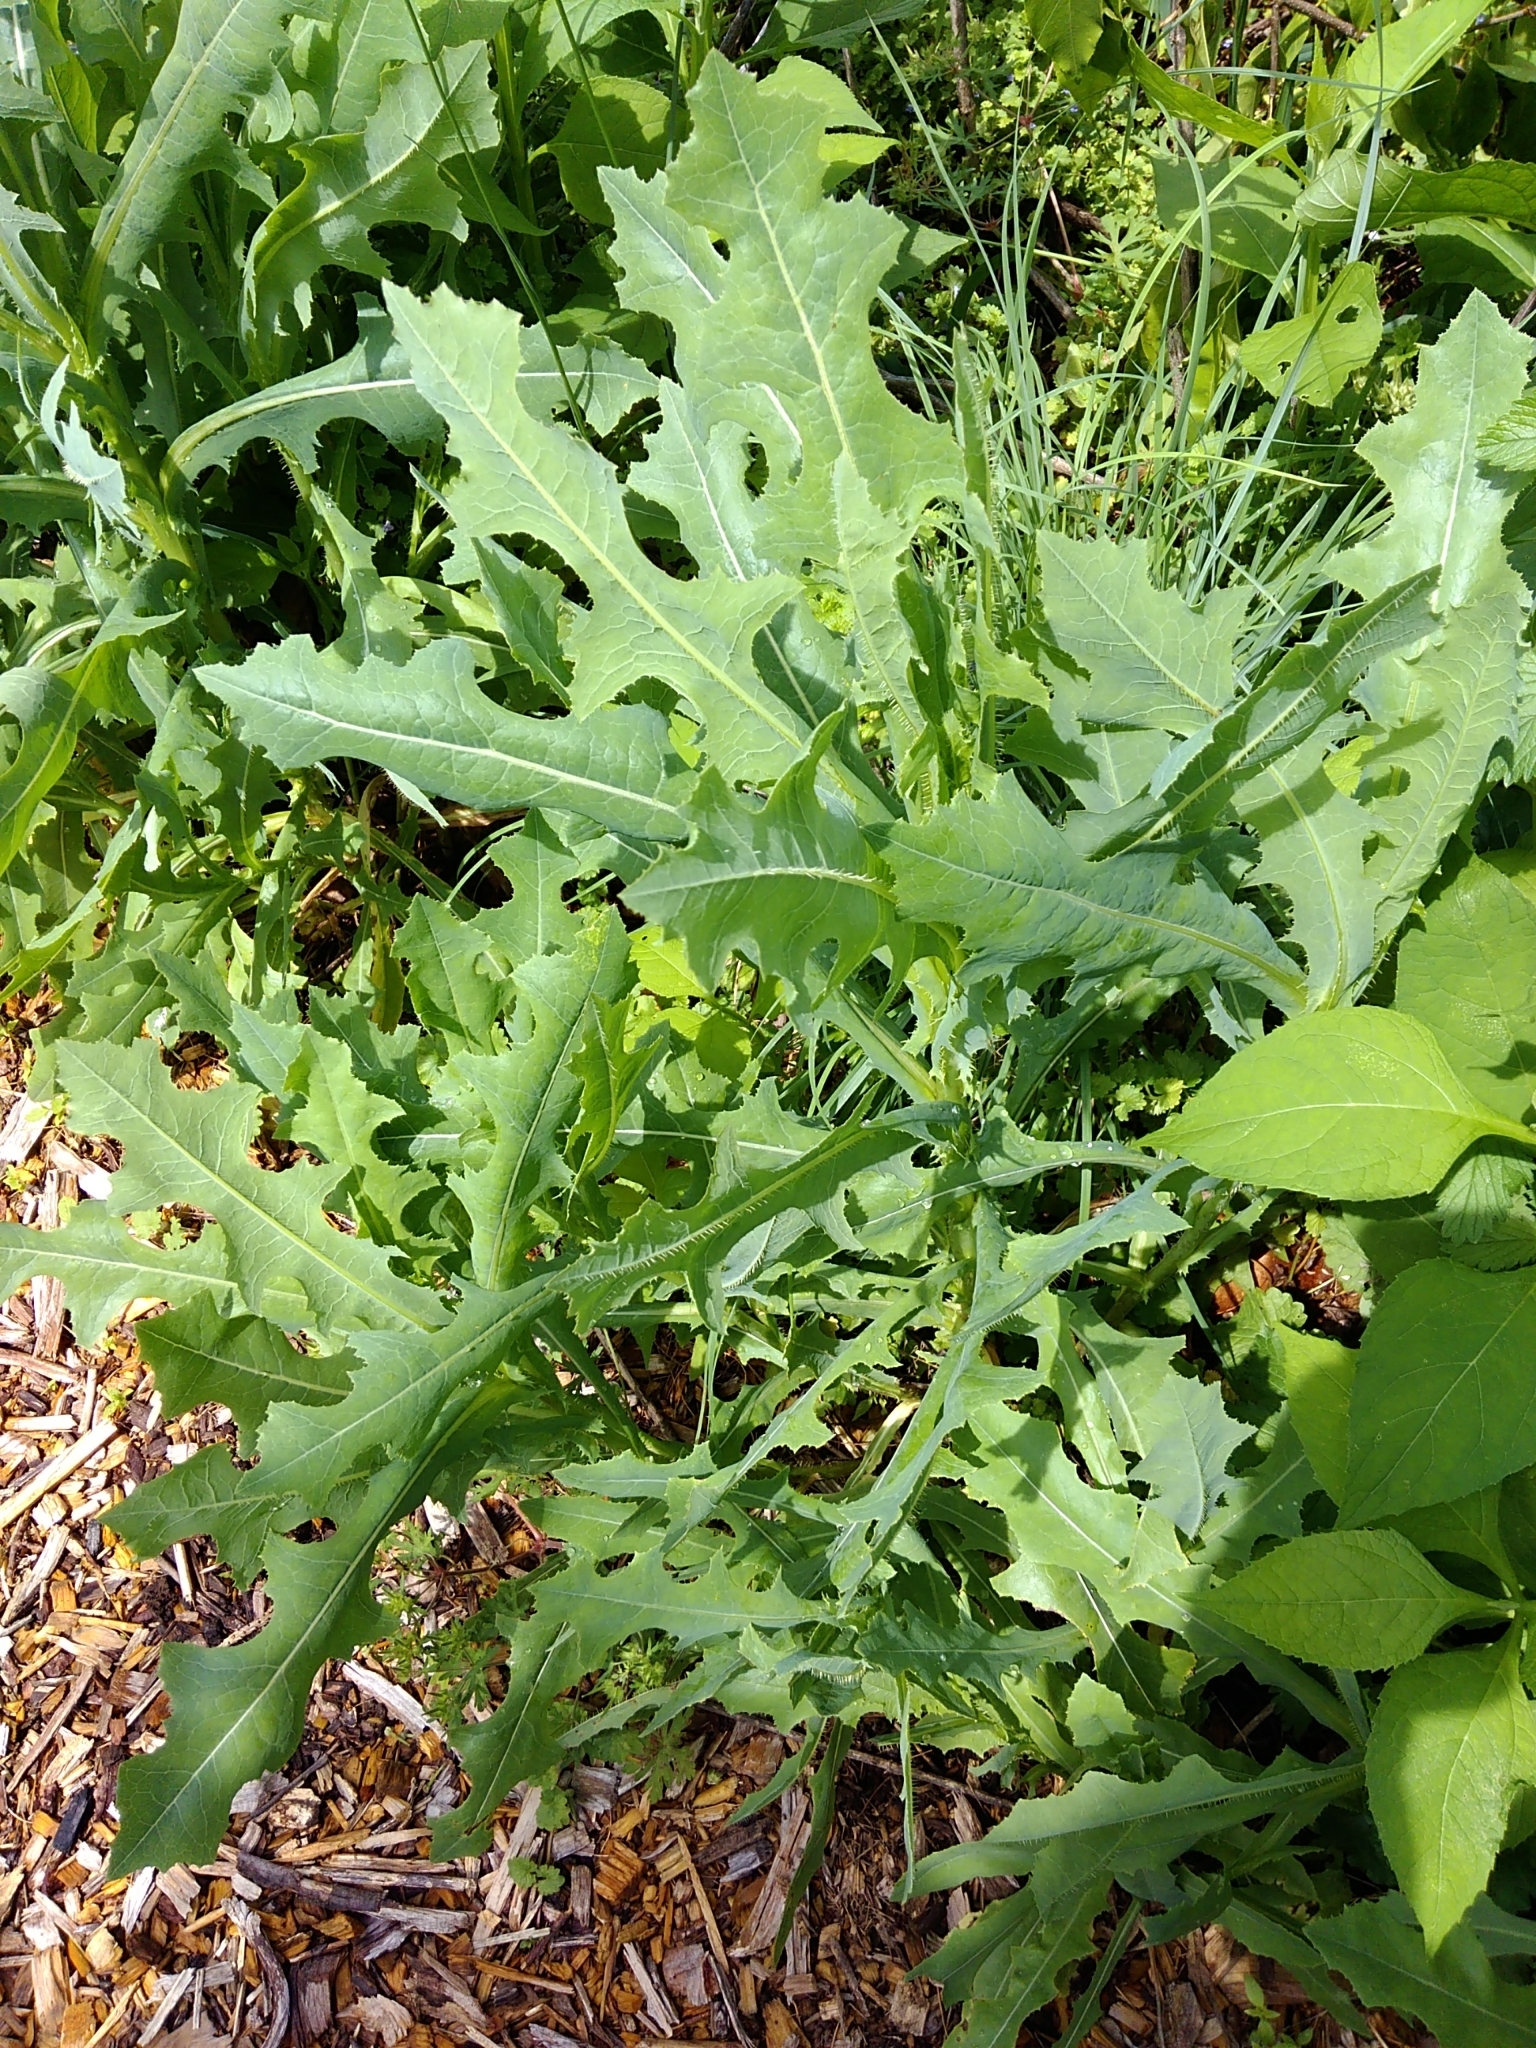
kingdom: Plantae
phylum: Tracheophyta
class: Magnoliopsida
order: Asterales
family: Asteraceae
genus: Lactuca
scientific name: Lactuca serriola
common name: Prickly lettuce
